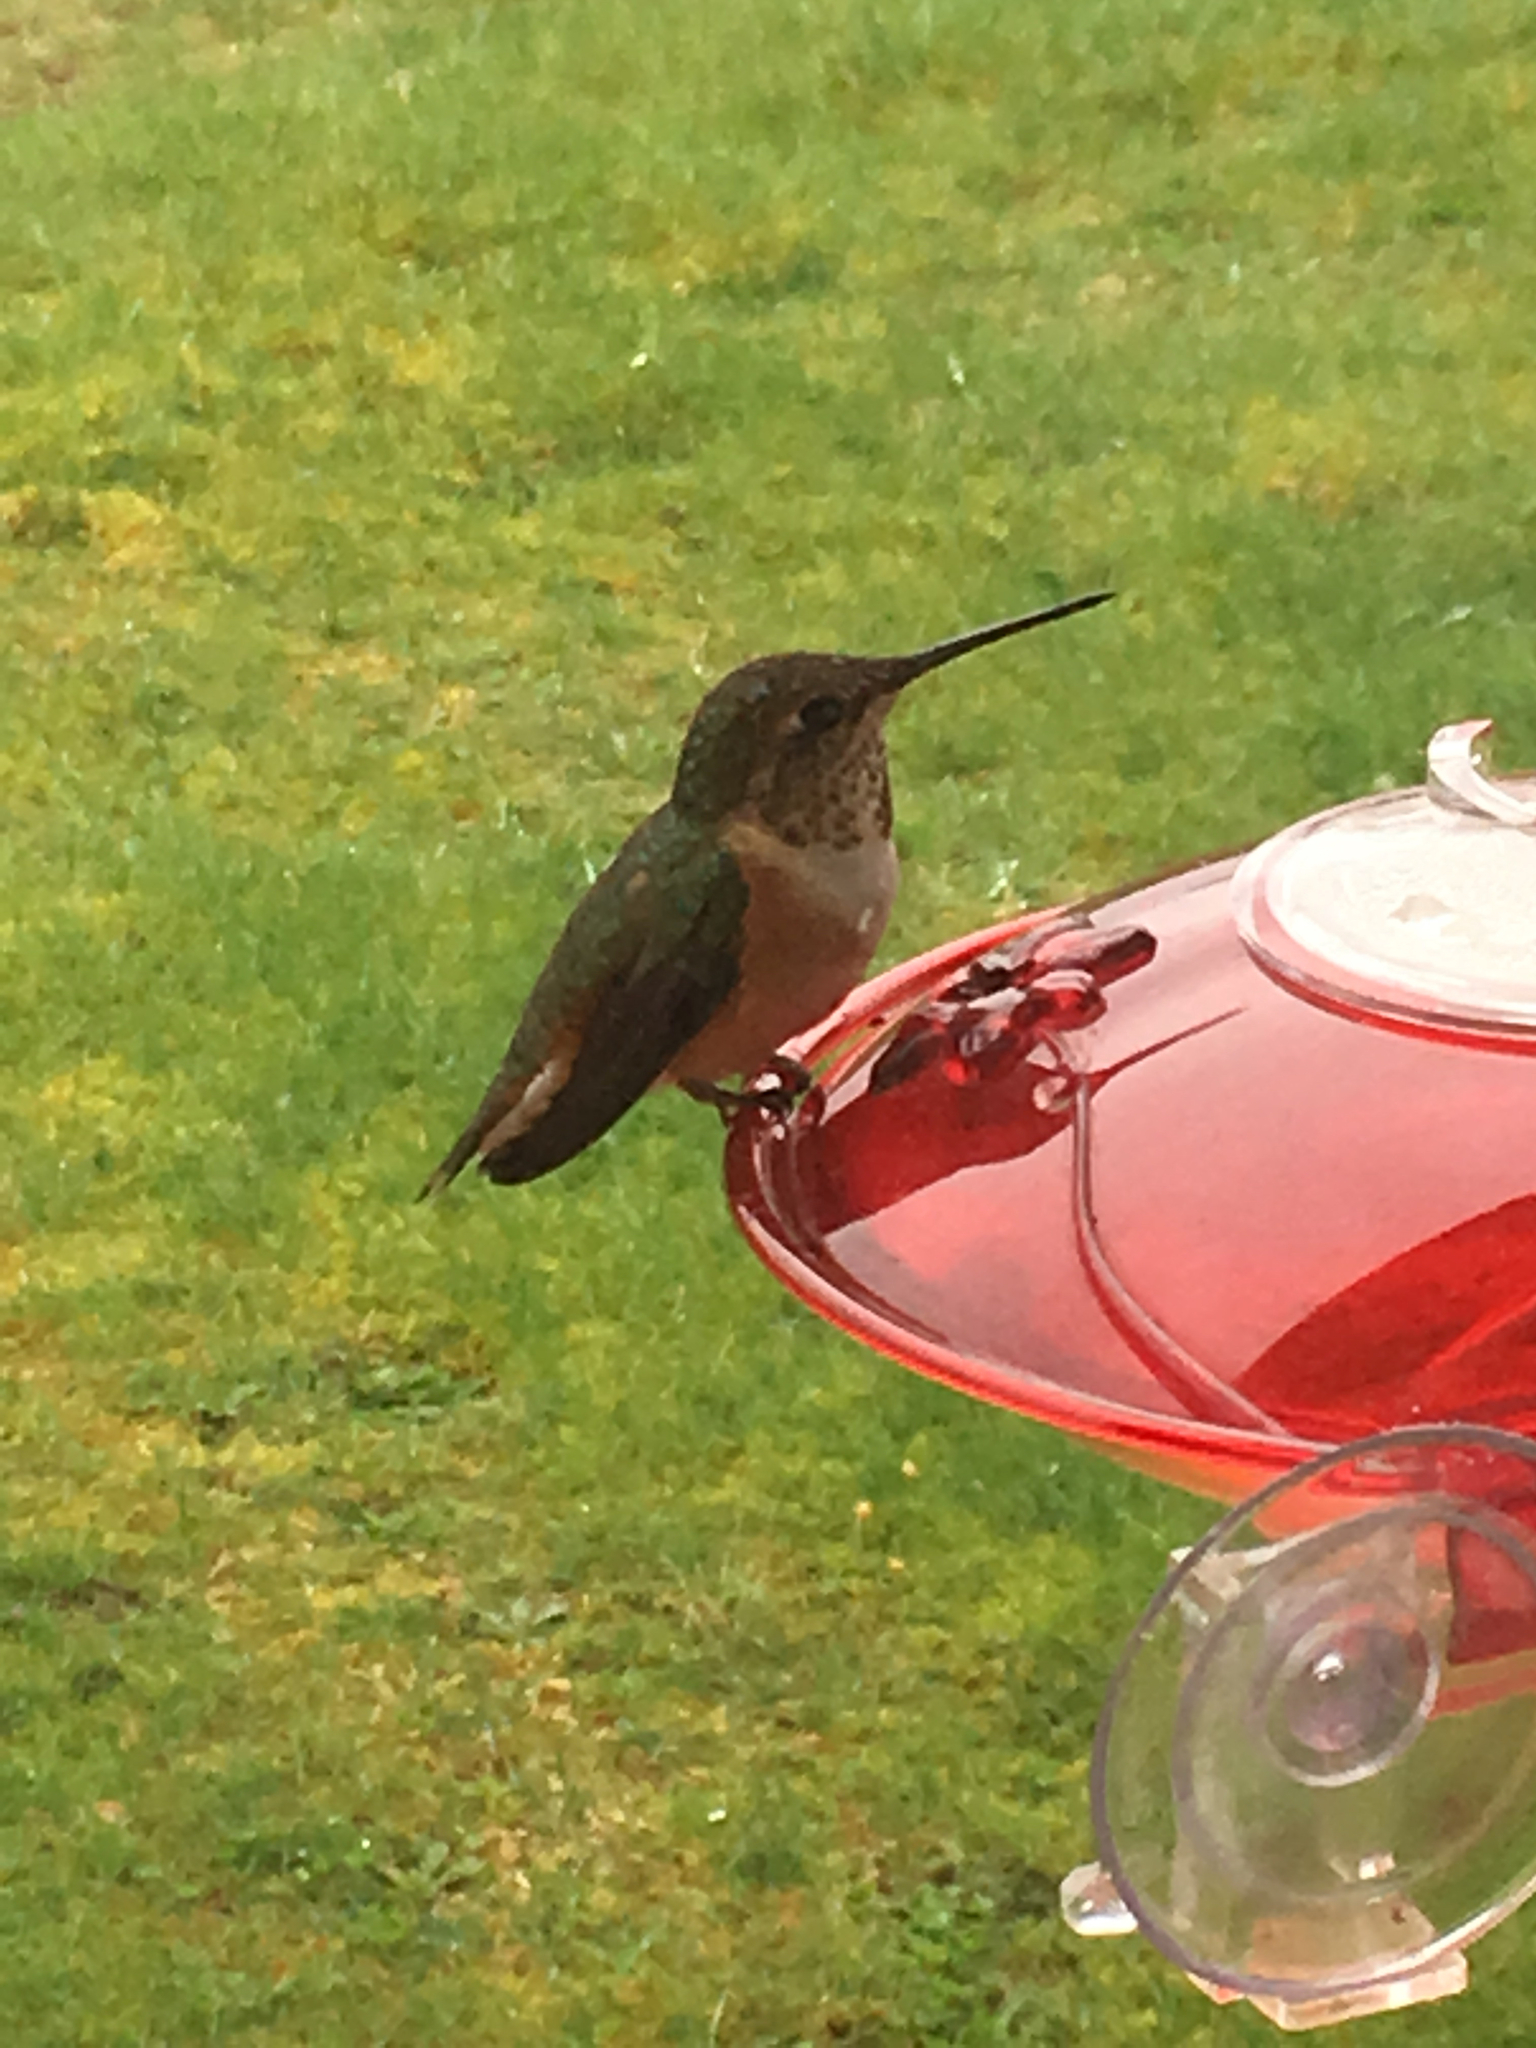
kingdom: Animalia
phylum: Chordata
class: Aves
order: Apodiformes
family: Trochilidae
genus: Selasphorus
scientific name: Selasphorus rufus
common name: Rufous hummingbird
